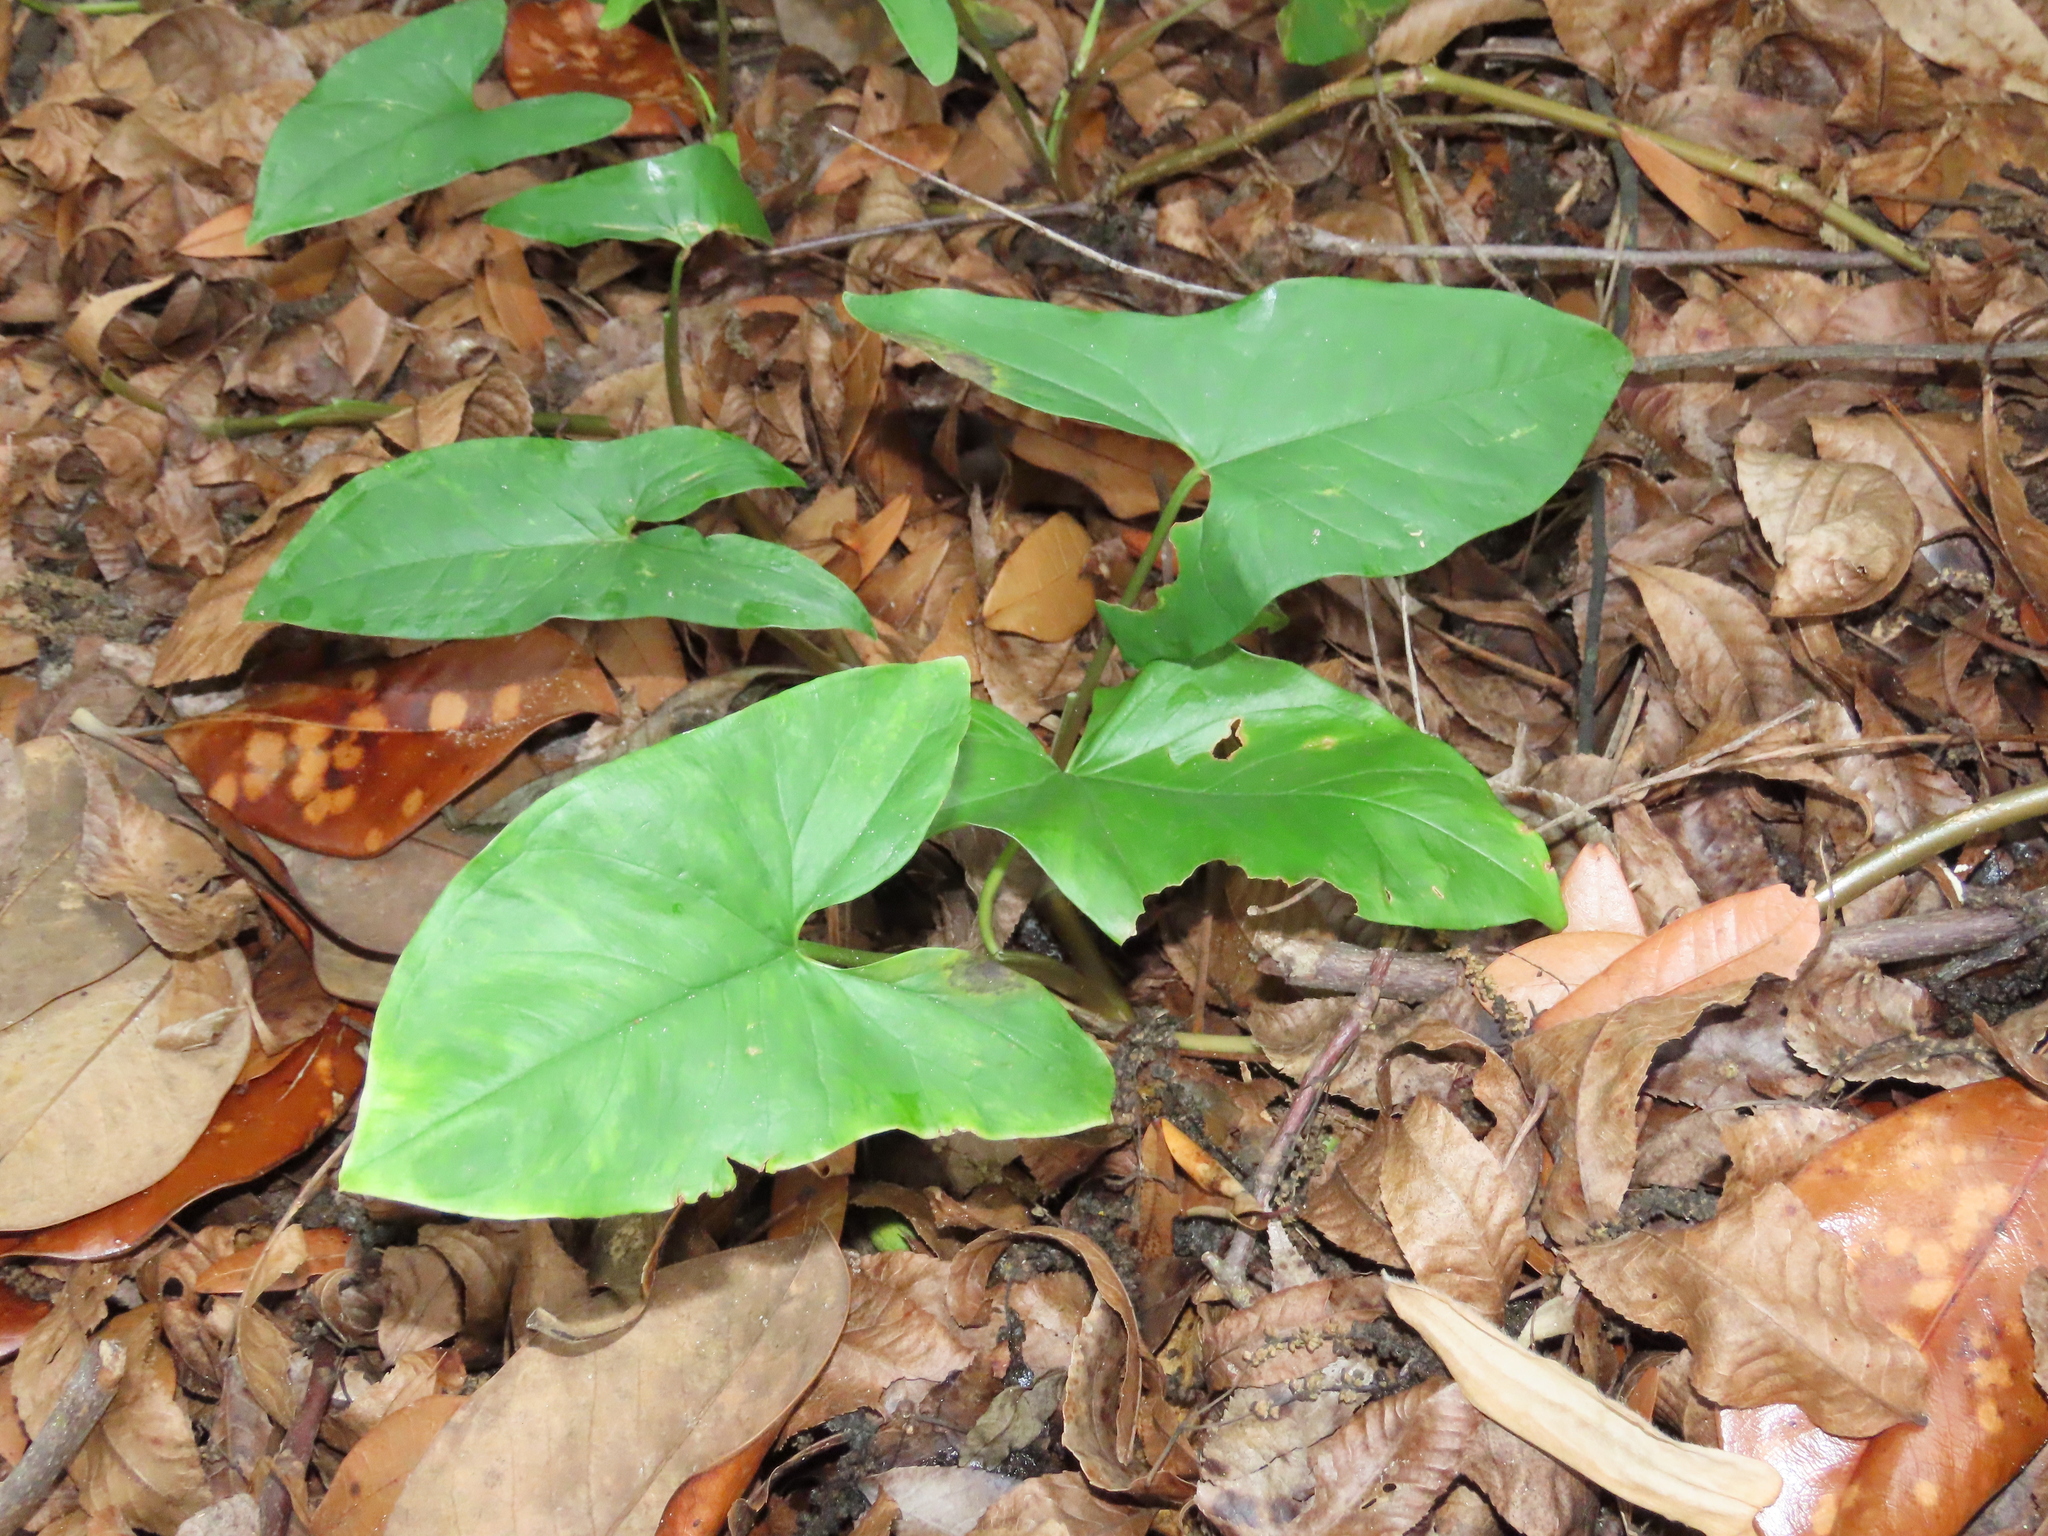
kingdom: Plantae
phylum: Tracheophyta
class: Liliopsida
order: Alismatales
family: Araceae
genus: Syngonium
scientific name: Syngonium podophyllum
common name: American evergreen
